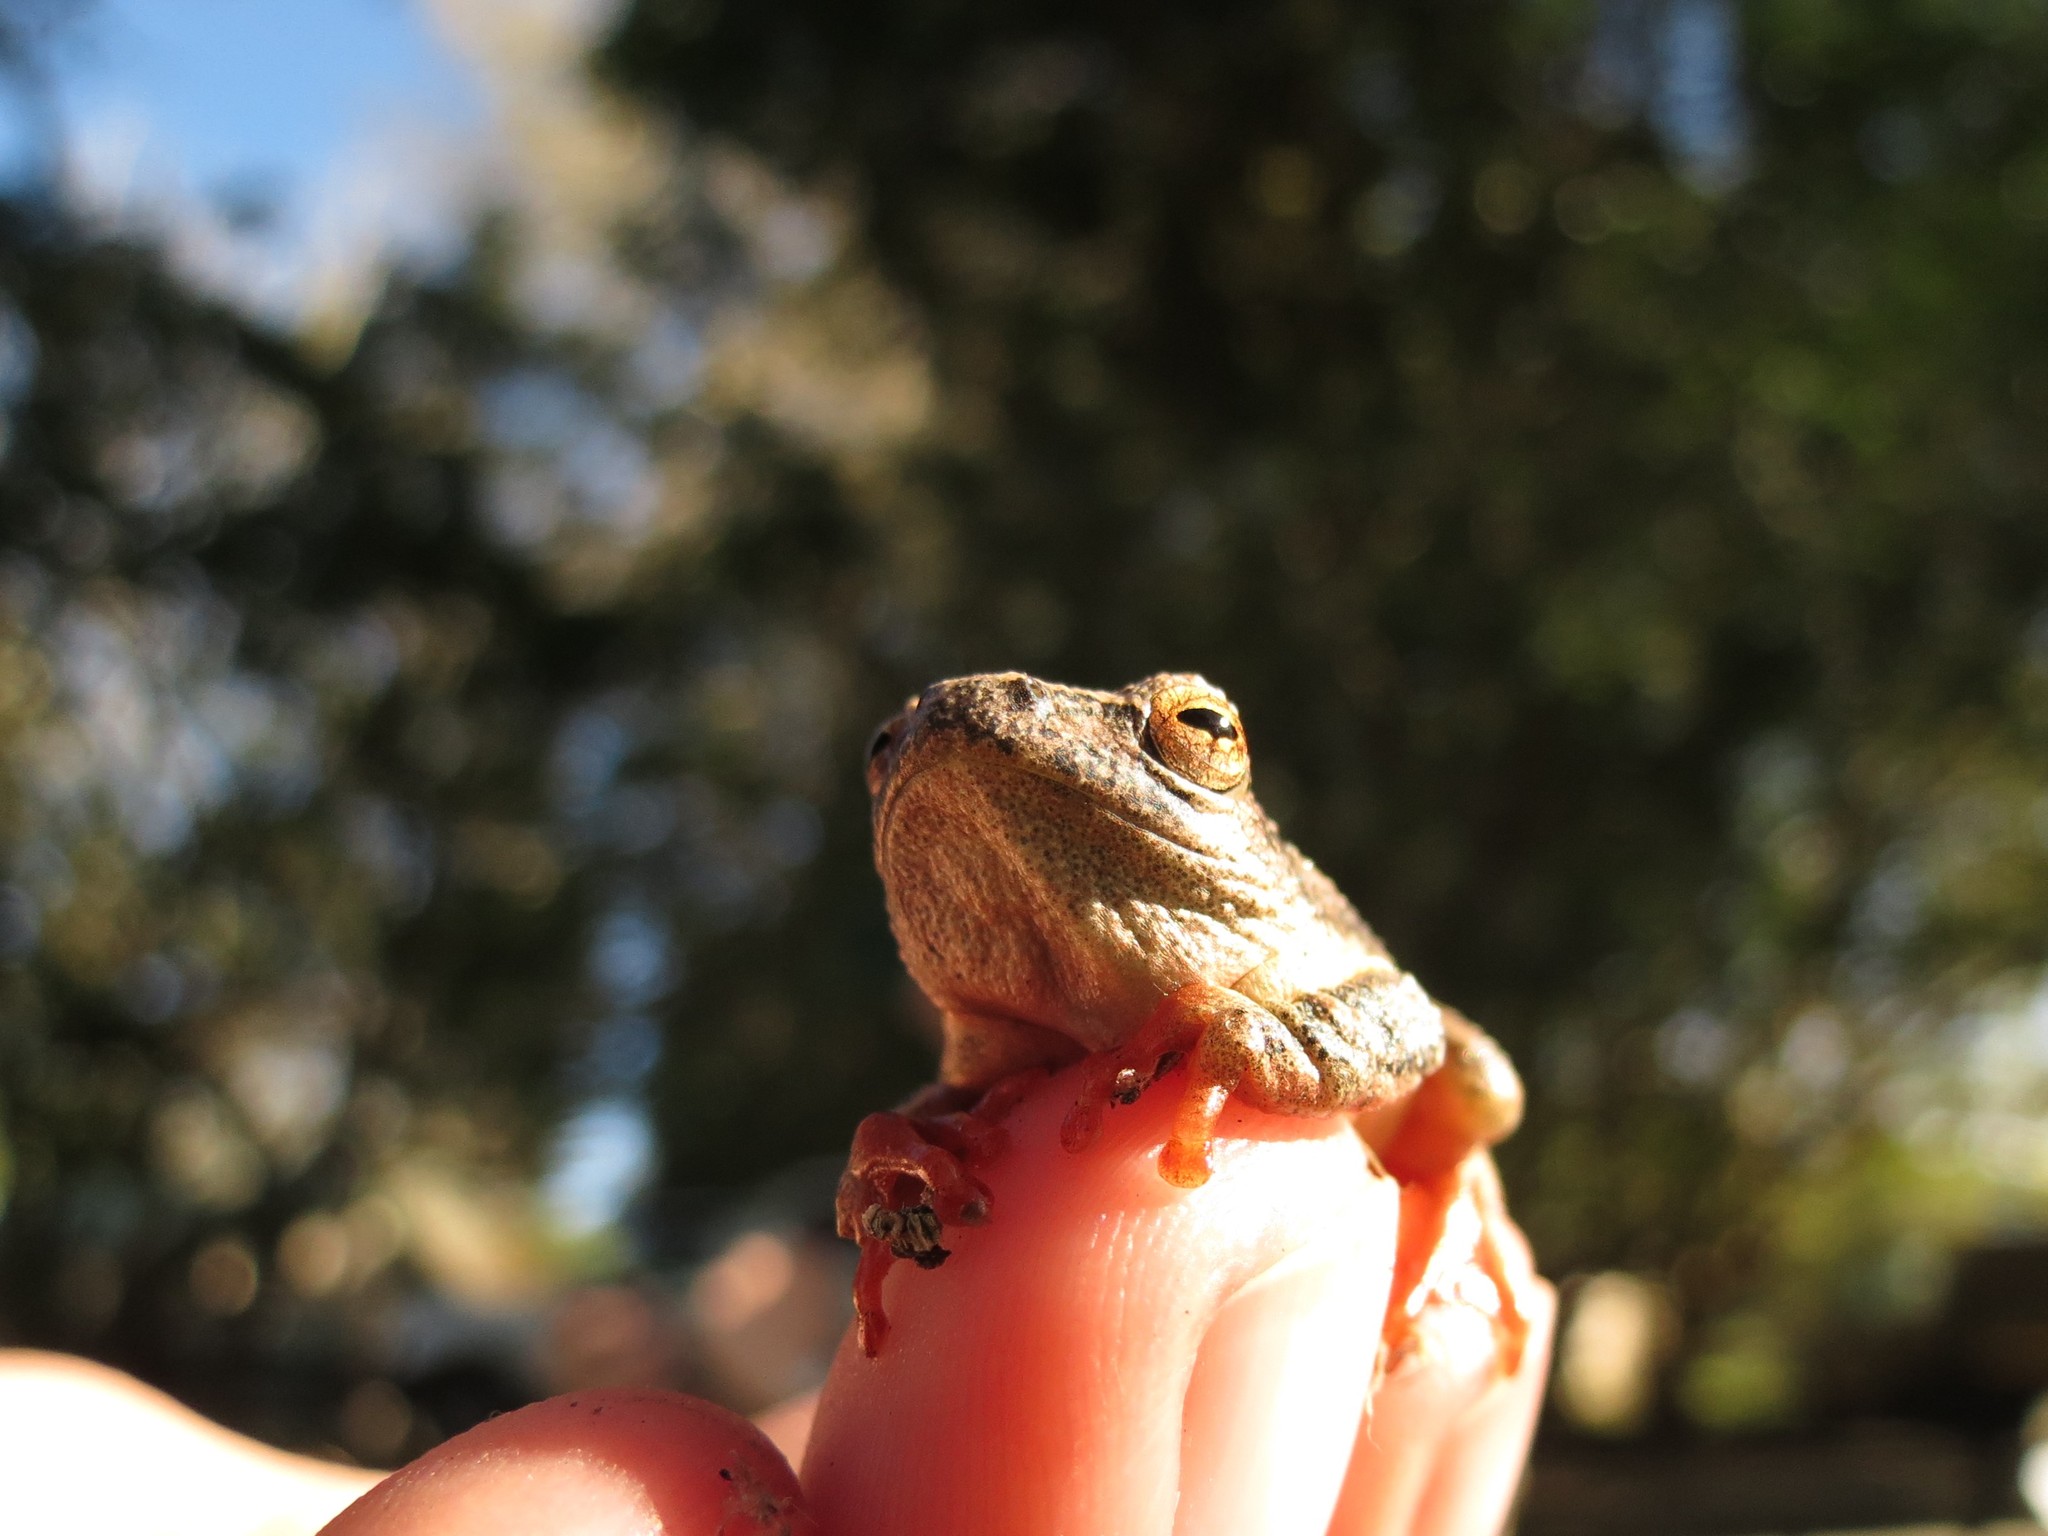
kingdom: Animalia
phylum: Chordata
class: Amphibia
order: Anura
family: Hyperoliidae
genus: Hyperolius
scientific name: Hyperolius marmoratus
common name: Painted reed frog
